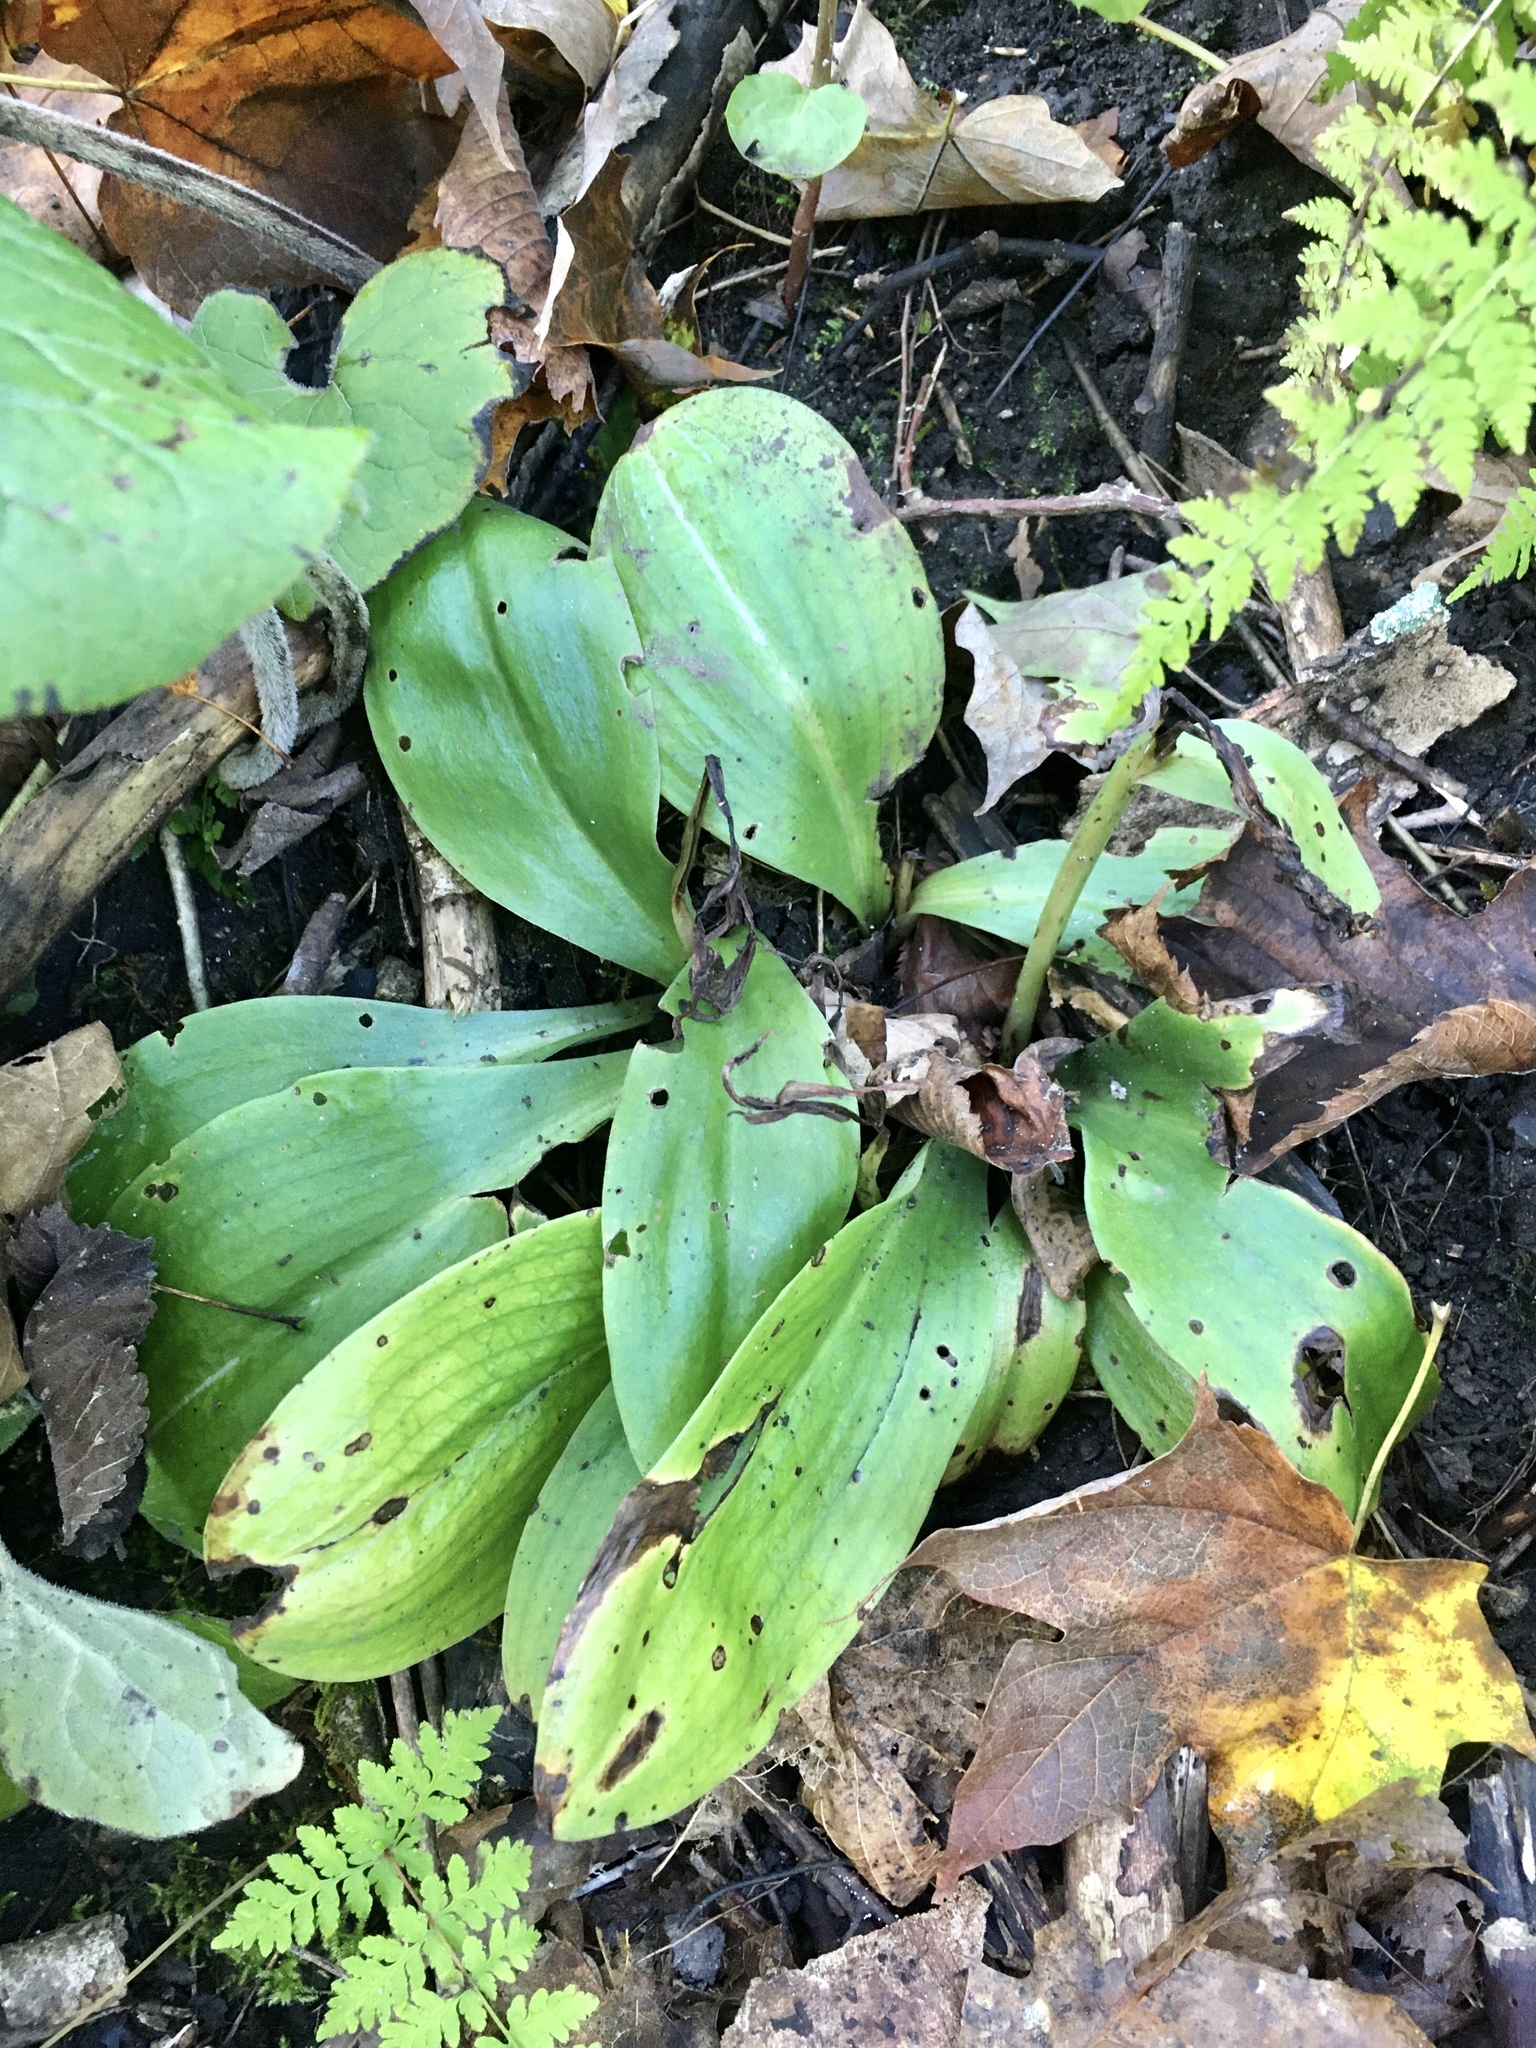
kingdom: Plantae
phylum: Tracheophyta
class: Liliopsida
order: Asparagales
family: Orchidaceae
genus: Galearis
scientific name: Galearis spectabilis
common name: Purple-hooded orchis
